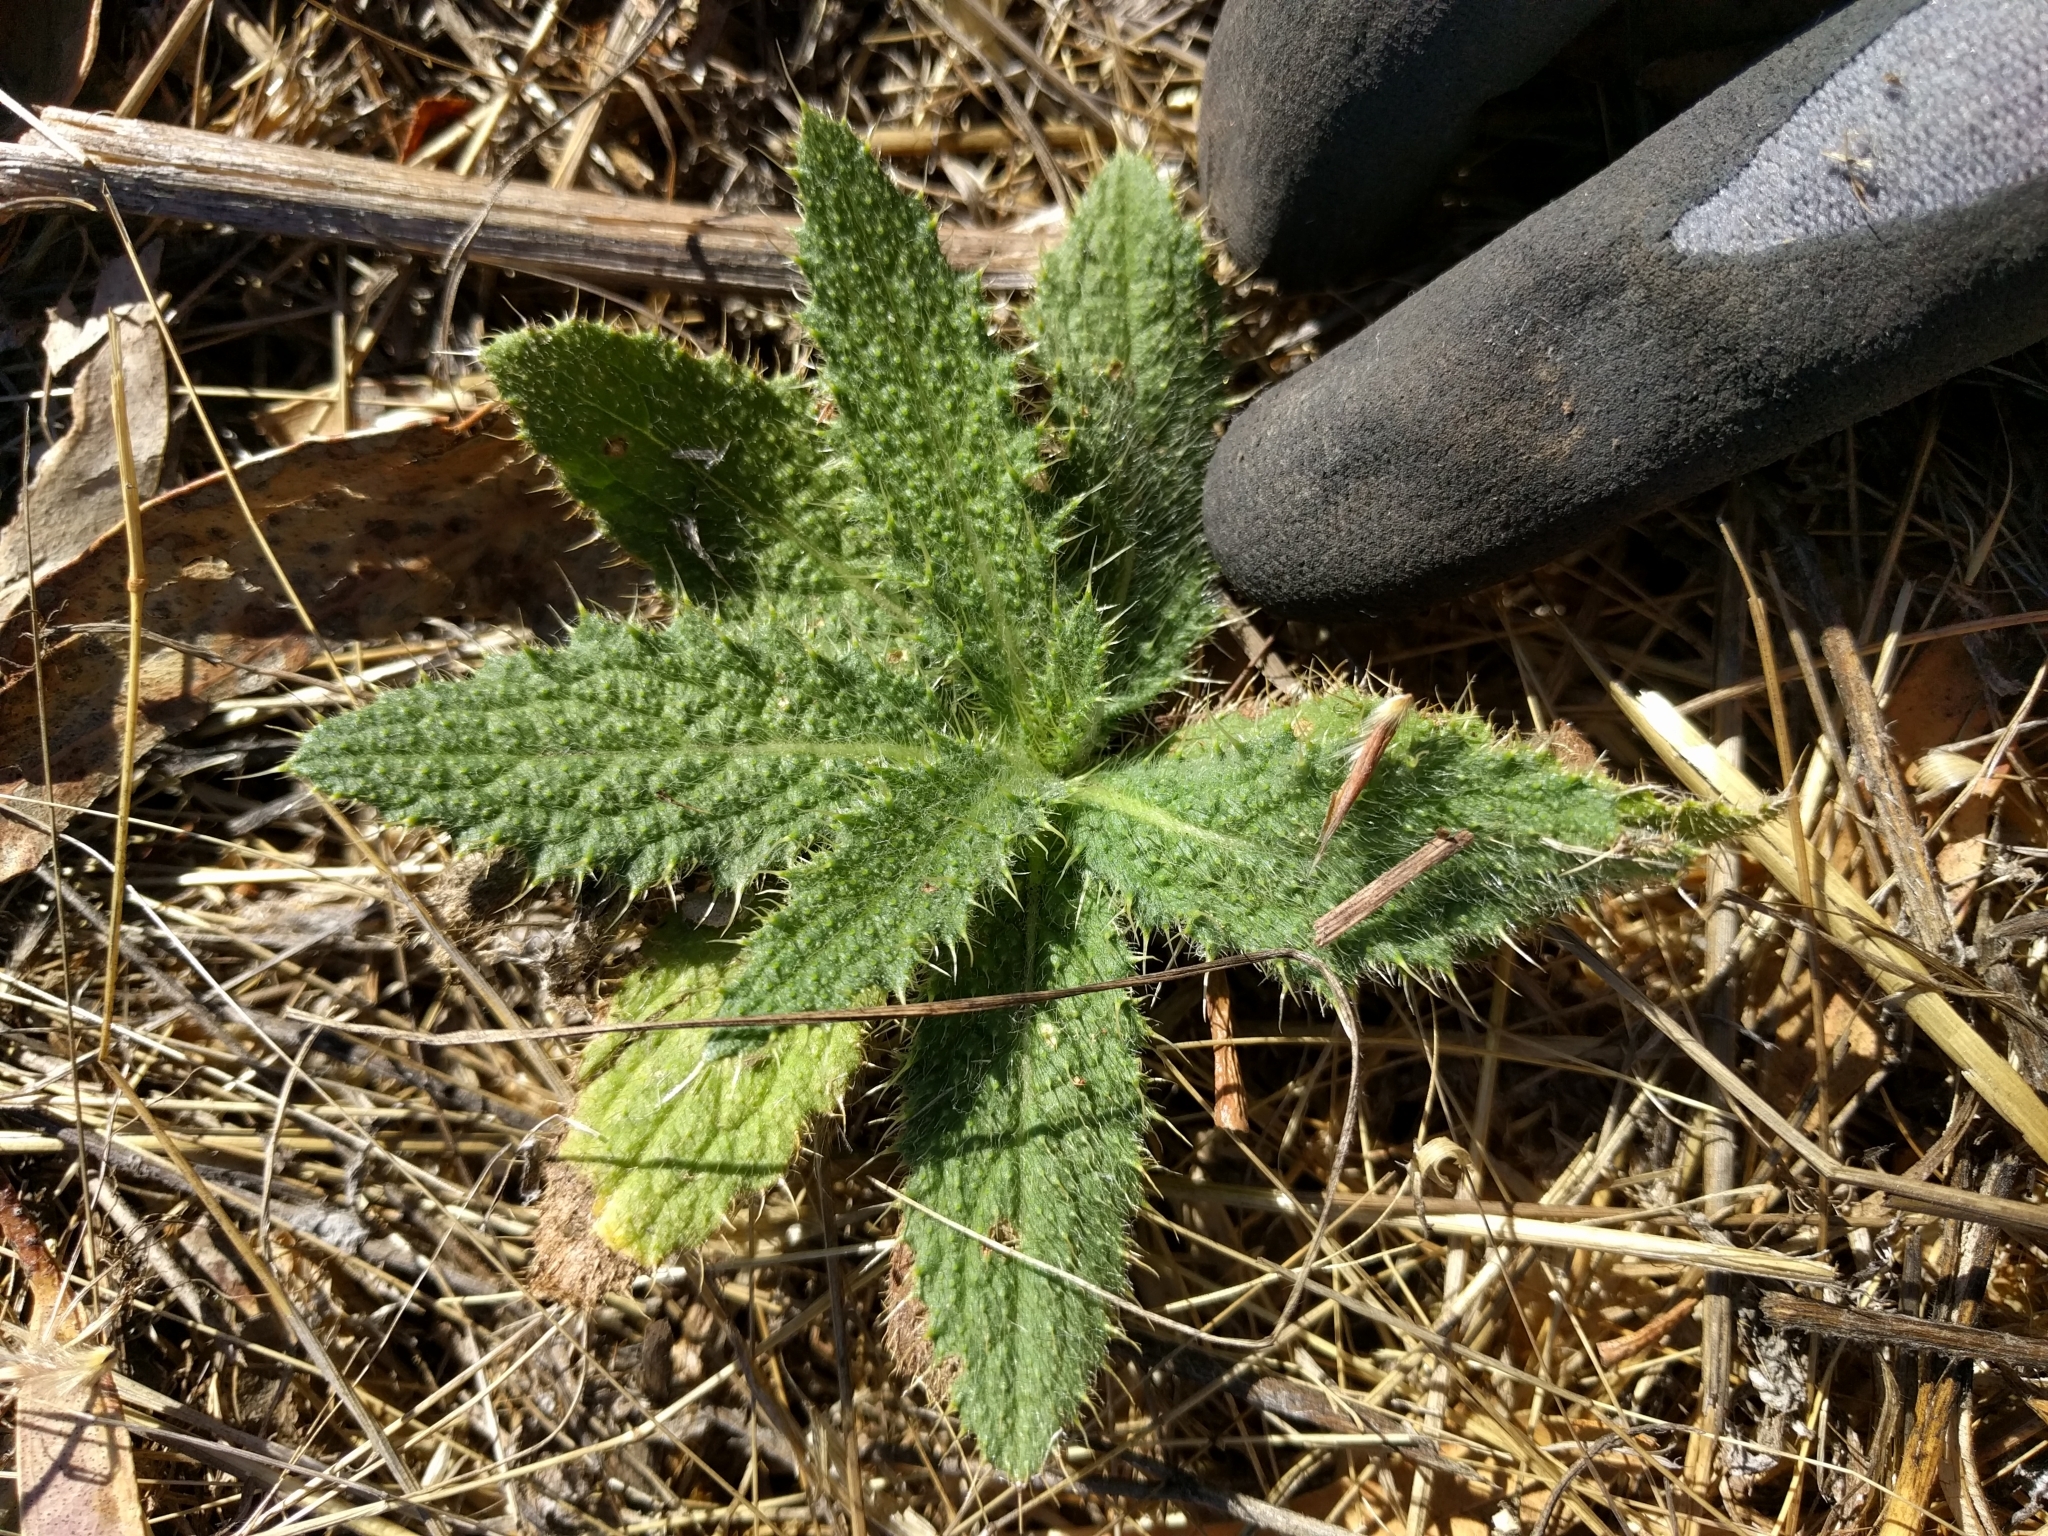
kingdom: Plantae
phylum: Tracheophyta
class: Magnoliopsida
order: Asterales
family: Asteraceae
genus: Cirsium
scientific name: Cirsium vulgare
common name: Bull thistle
